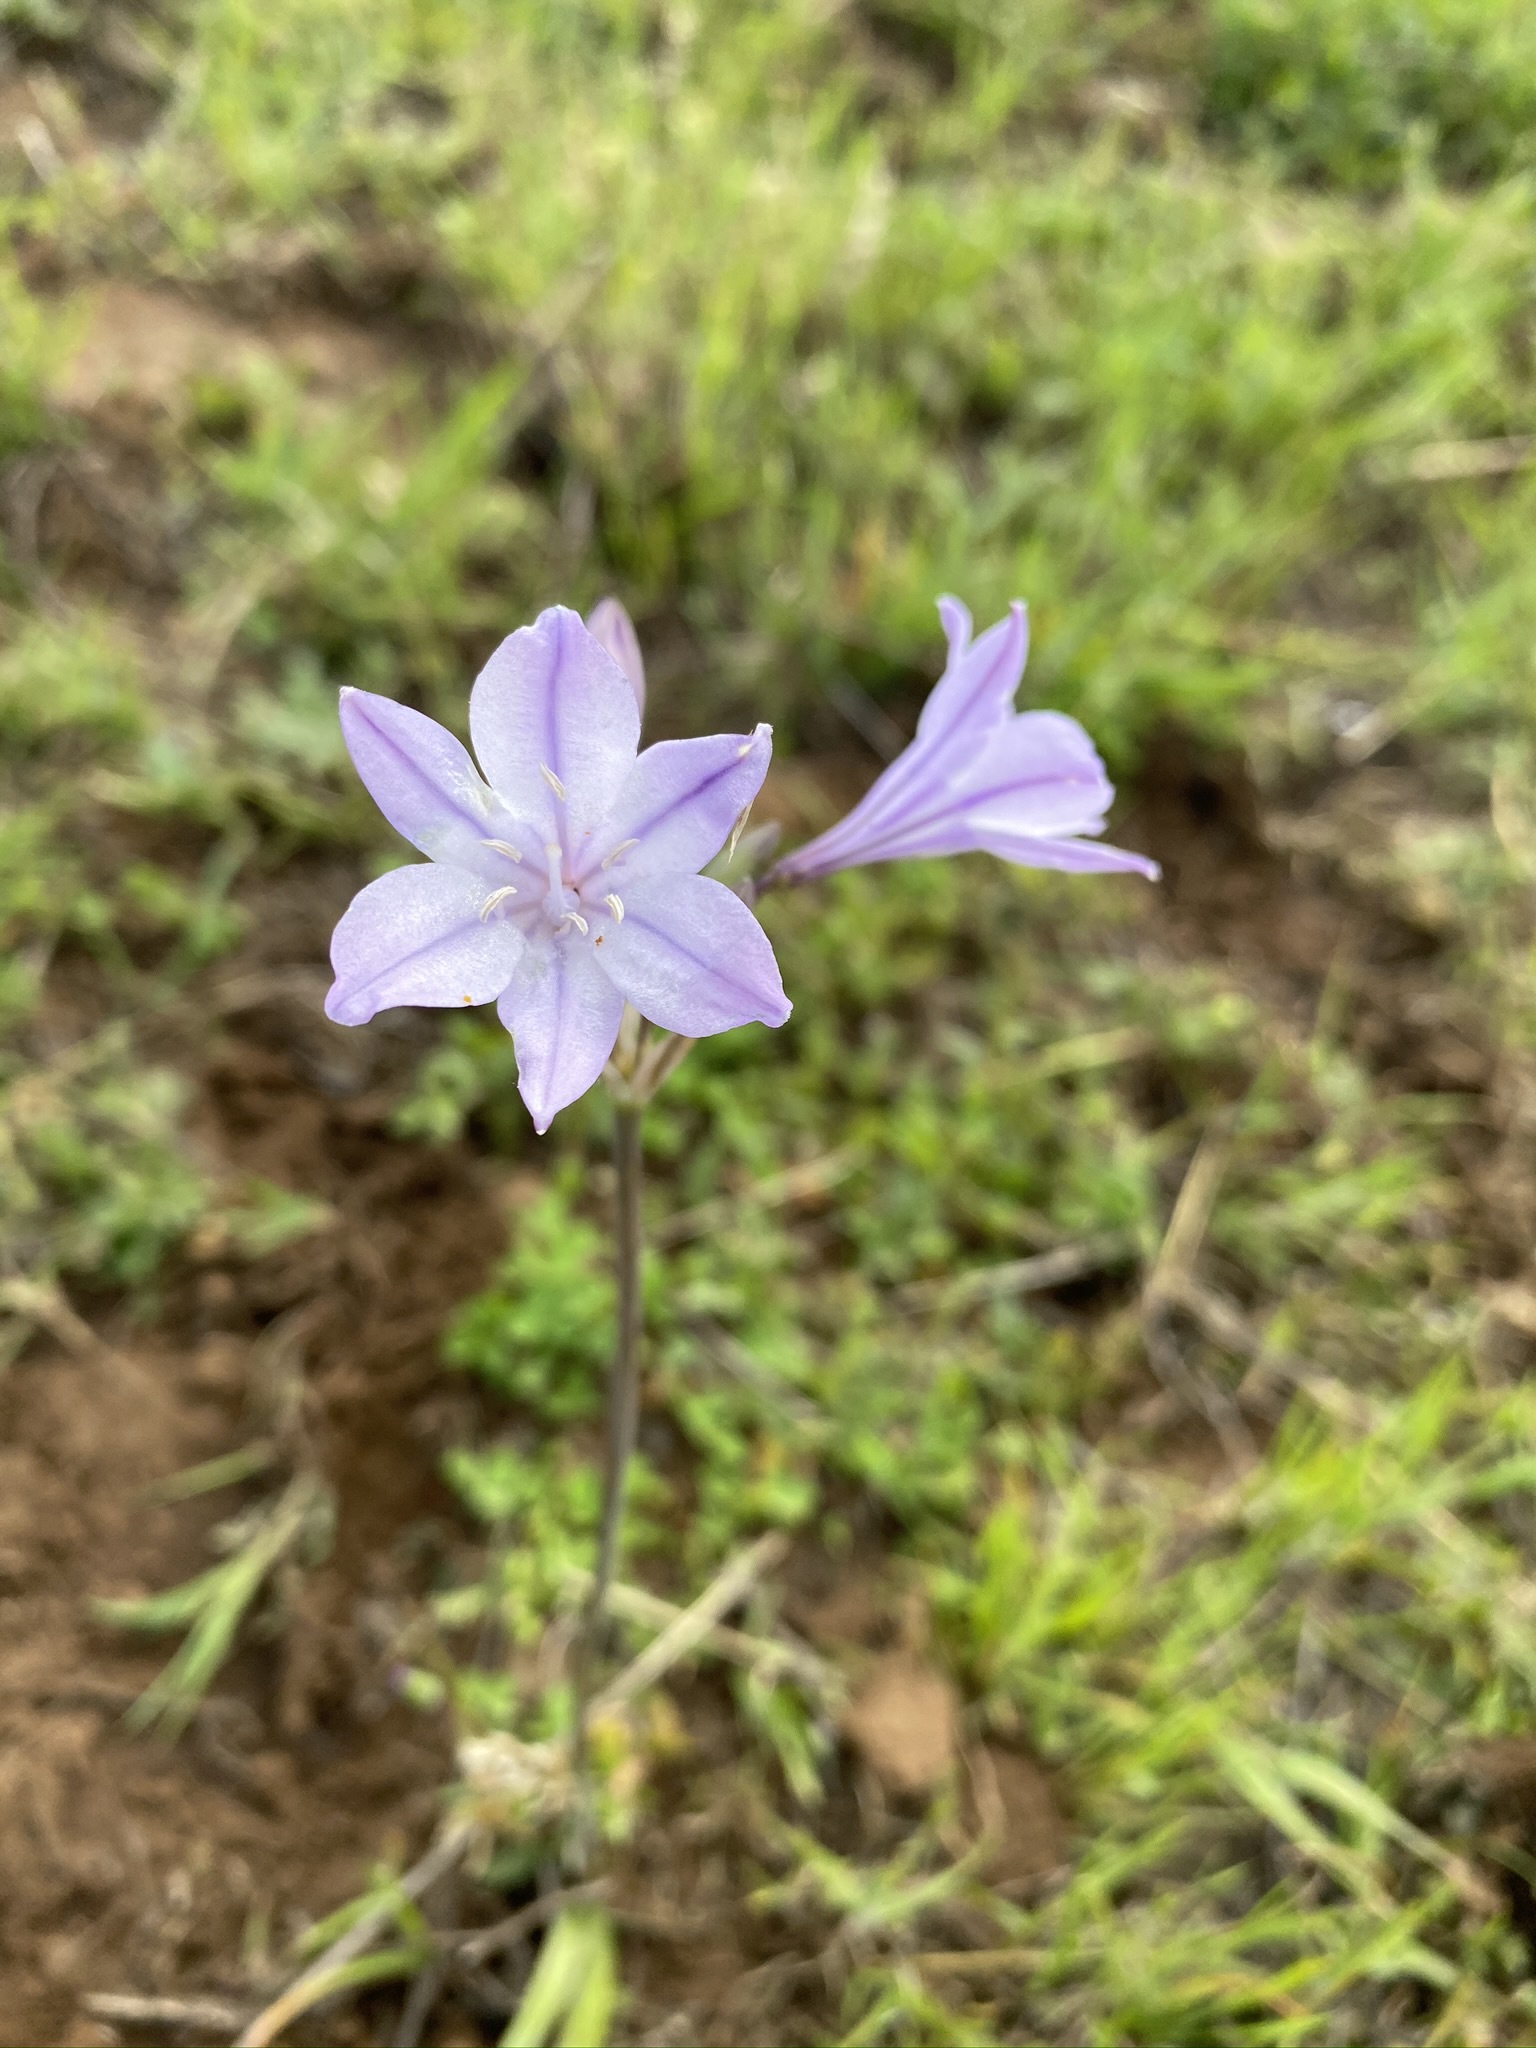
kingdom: Plantae
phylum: Tracheophyta
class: Liliopsida
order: Asparagales
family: Asparagaceae
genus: Triteleia
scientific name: Triteleia laxa
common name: Triplet-lily
